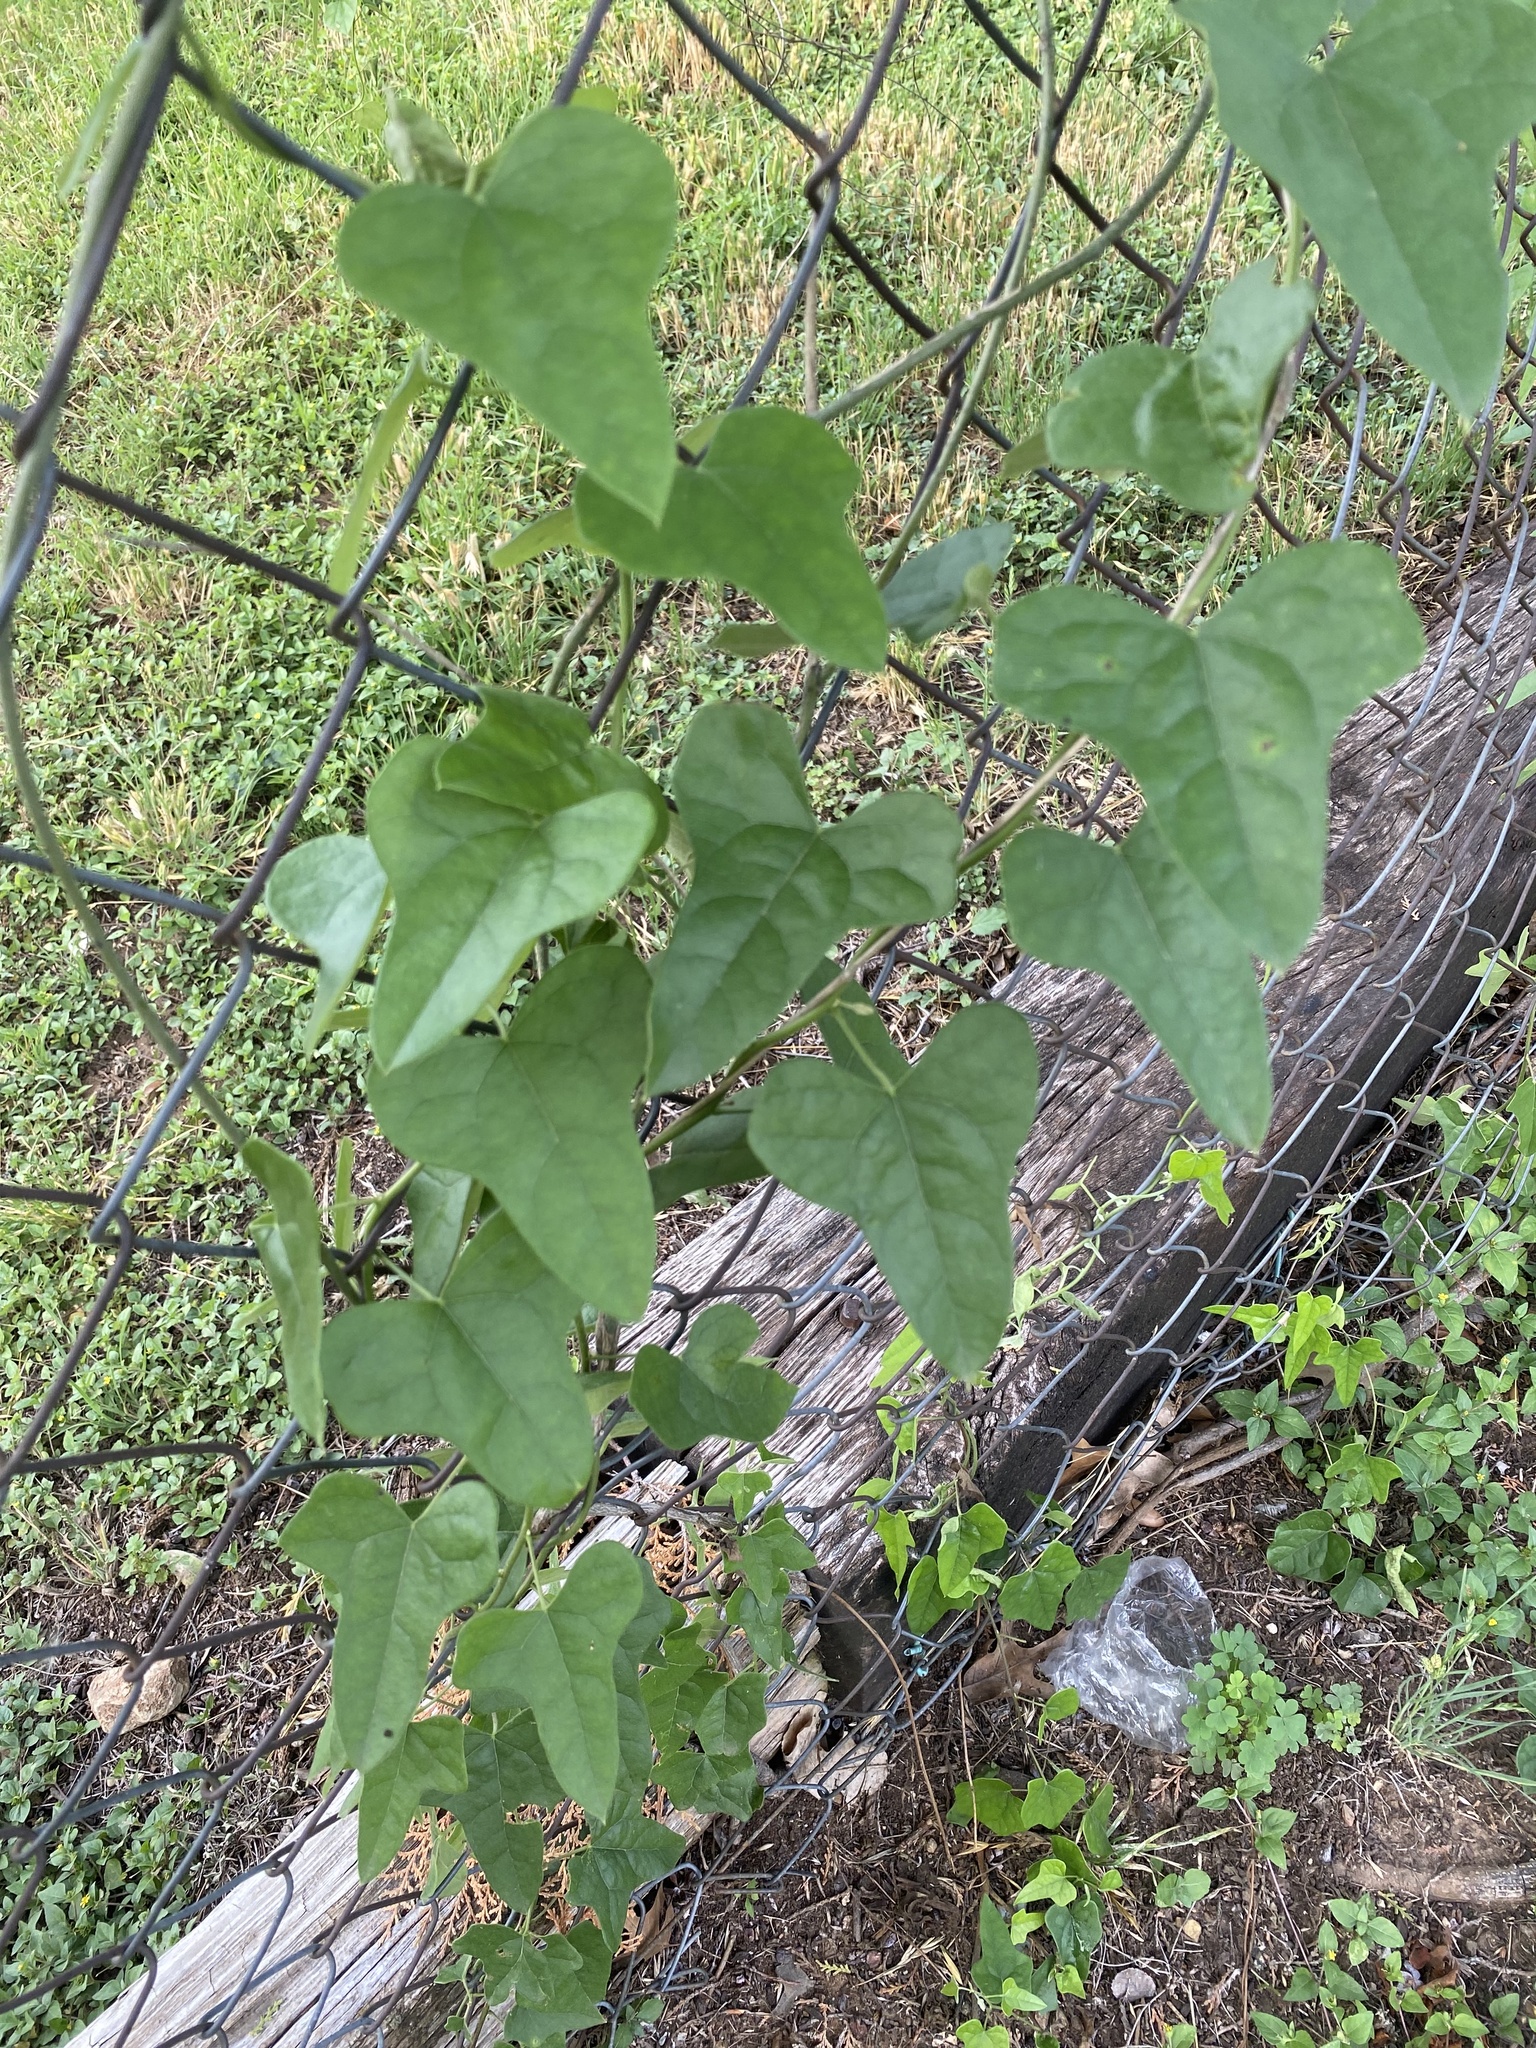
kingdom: Plantae
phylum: Tracheophyta
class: Magnoliopsida
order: Ranunculales
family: Menispermaceae
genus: Cocculus
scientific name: Cocculus carolinus
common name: Carolina moonseed
